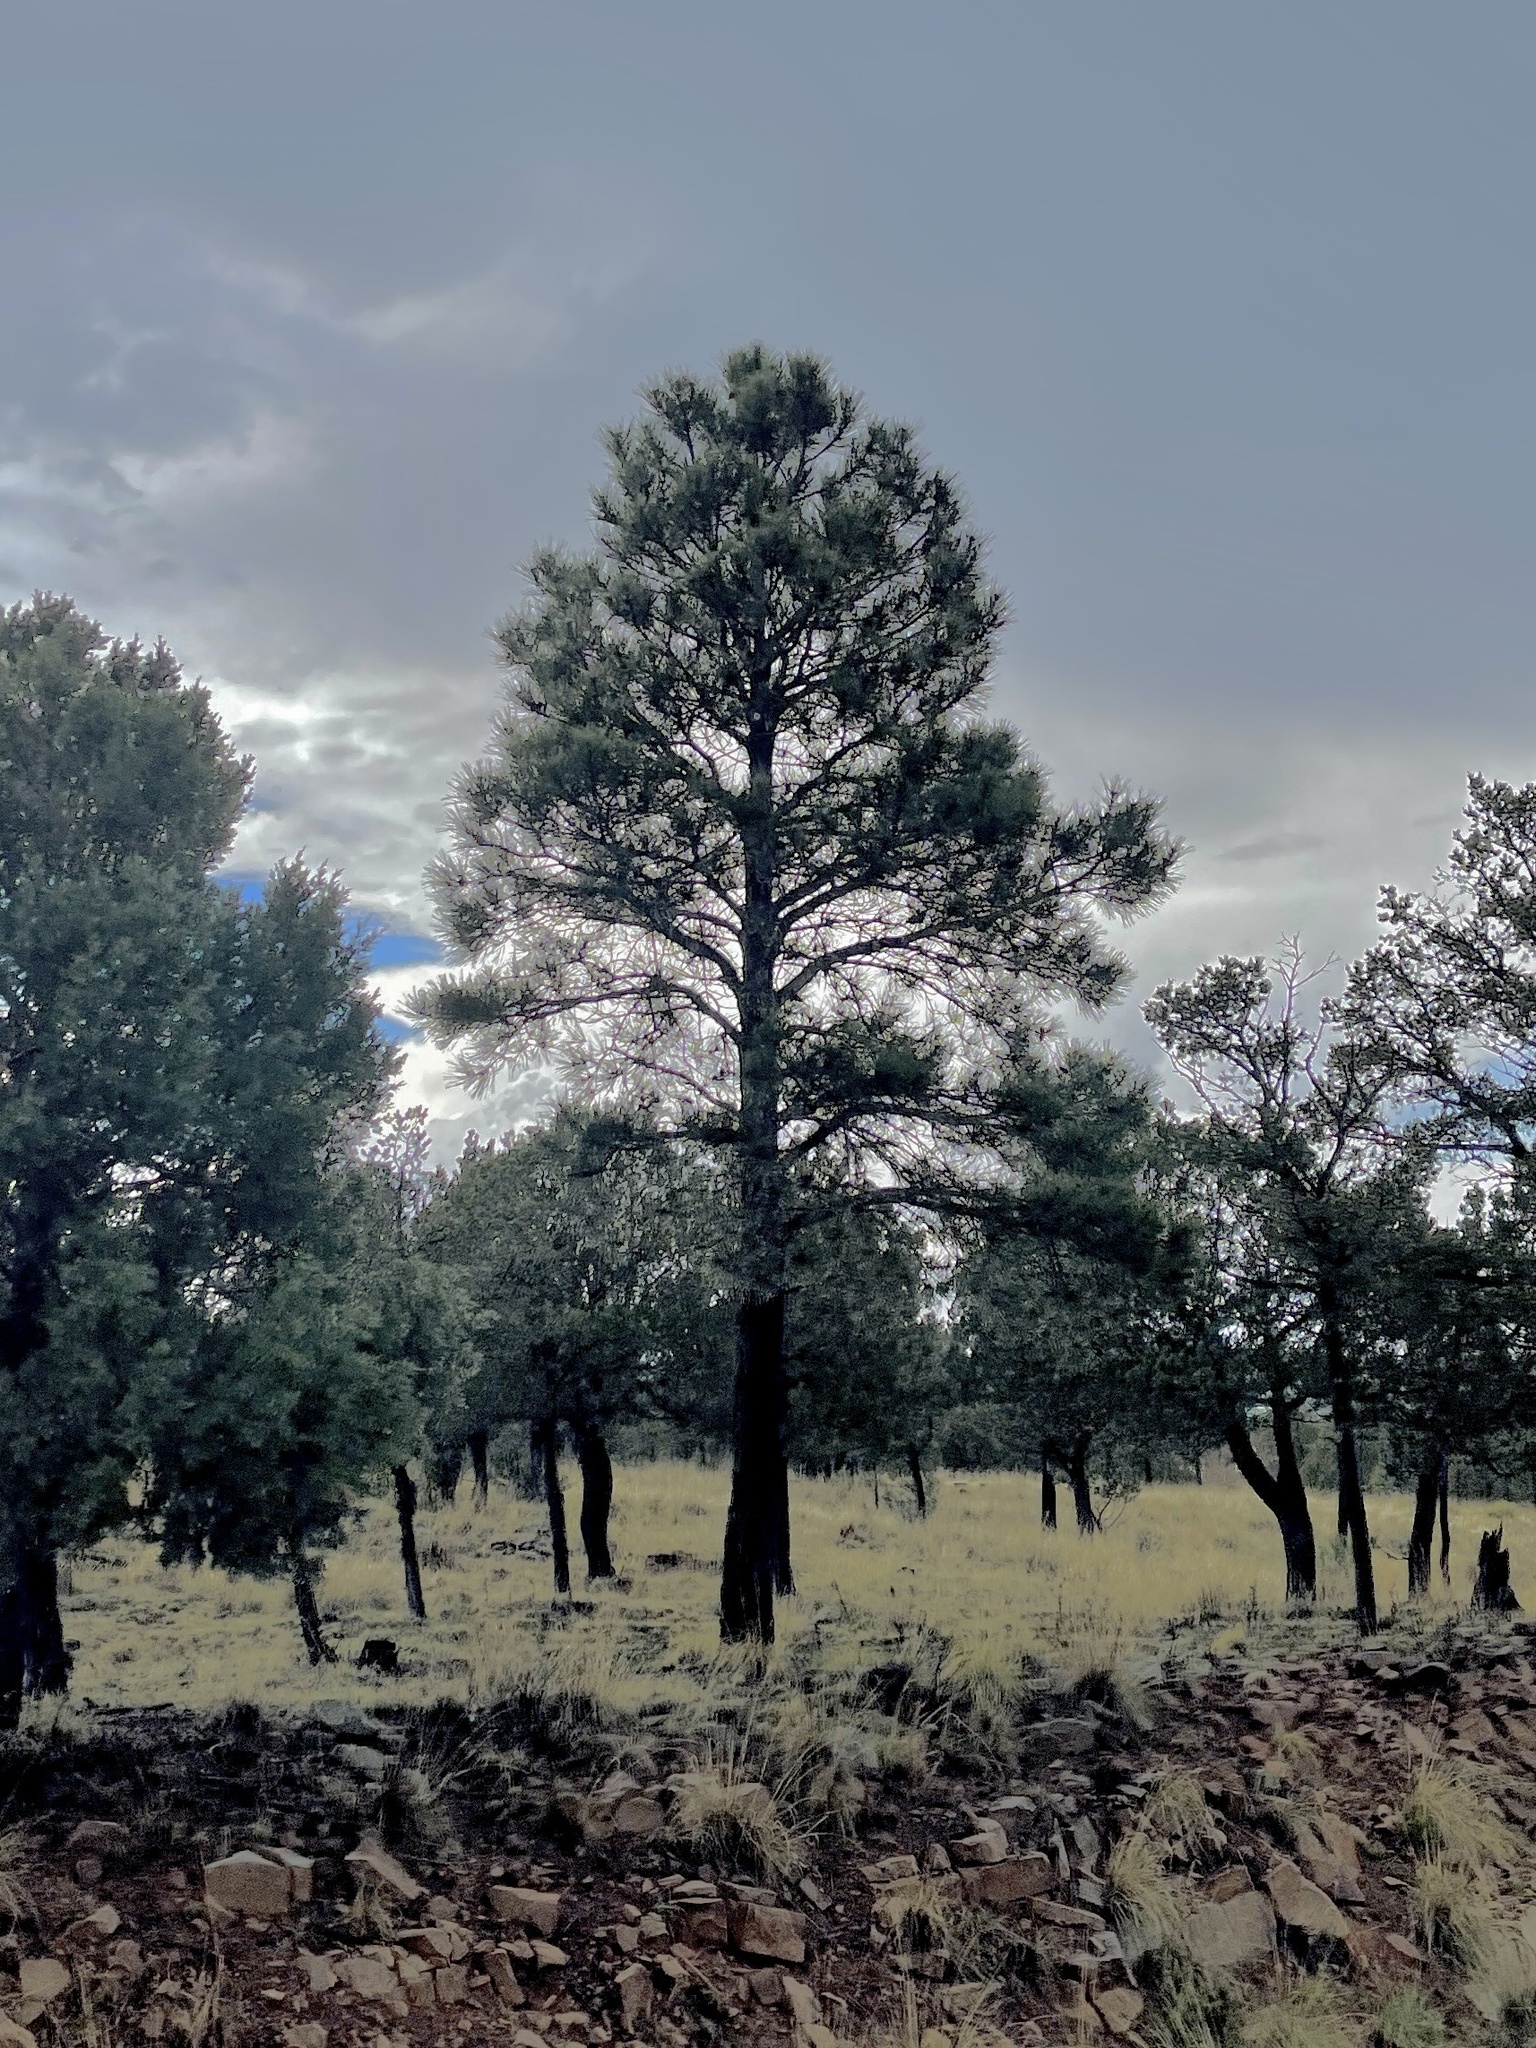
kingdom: Plantae
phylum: Tracheophyta
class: Pinopsida
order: Pinales
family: Pinaceae
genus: Pinus
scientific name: Pinus ponderosa
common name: Western yellow-pine
